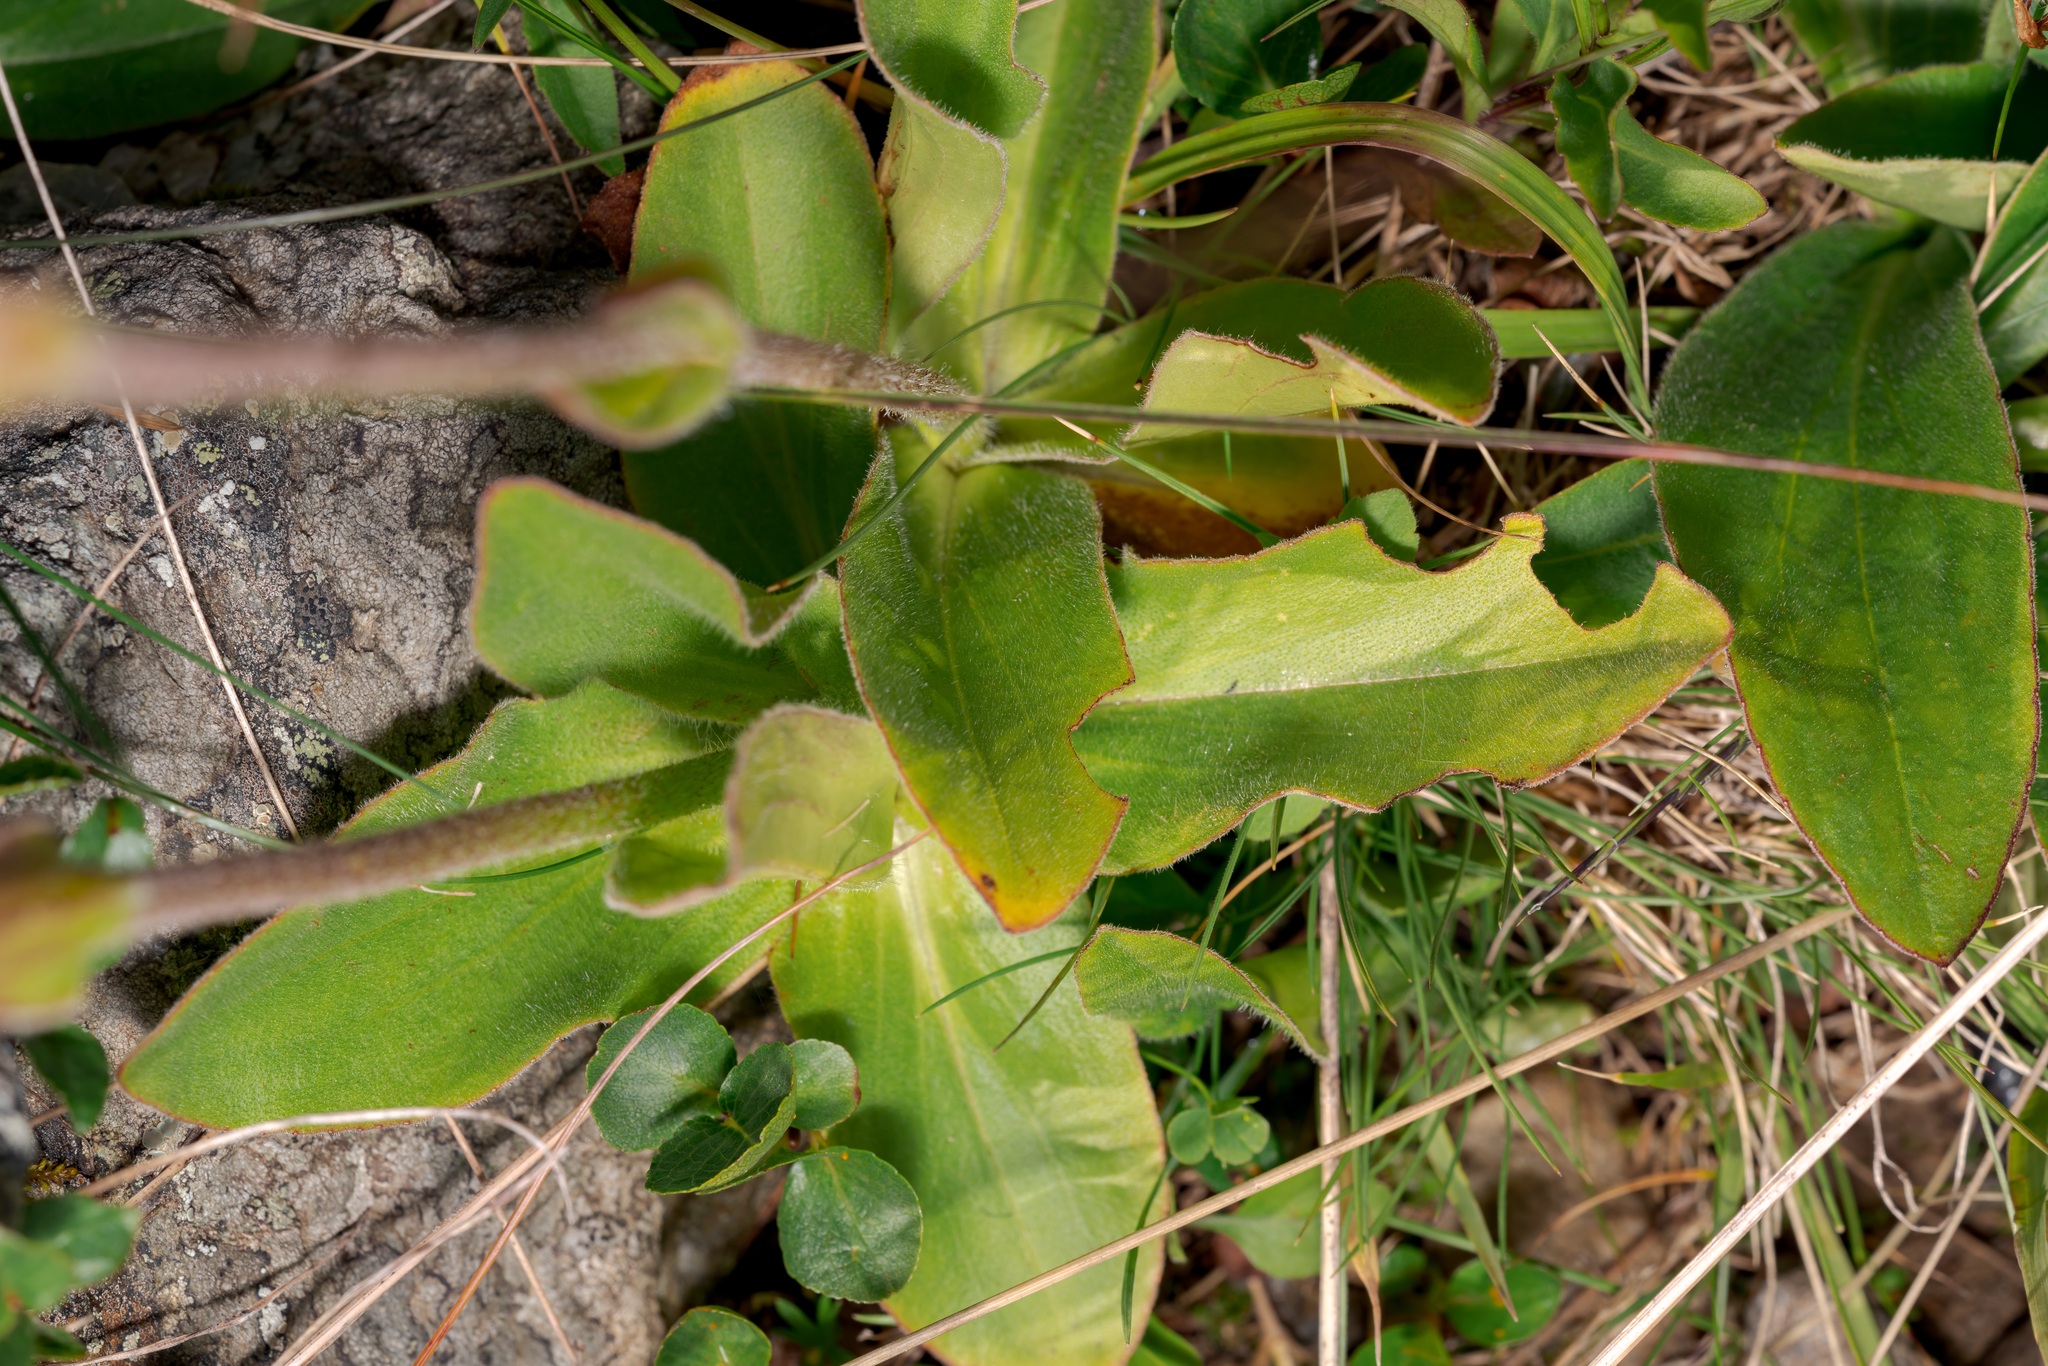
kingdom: Plantae
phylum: Tracheophyta
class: Magnoliopsida
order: Asterales
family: Asteraceae
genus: Arnica
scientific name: Arnica montana
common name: Leopard's bane
